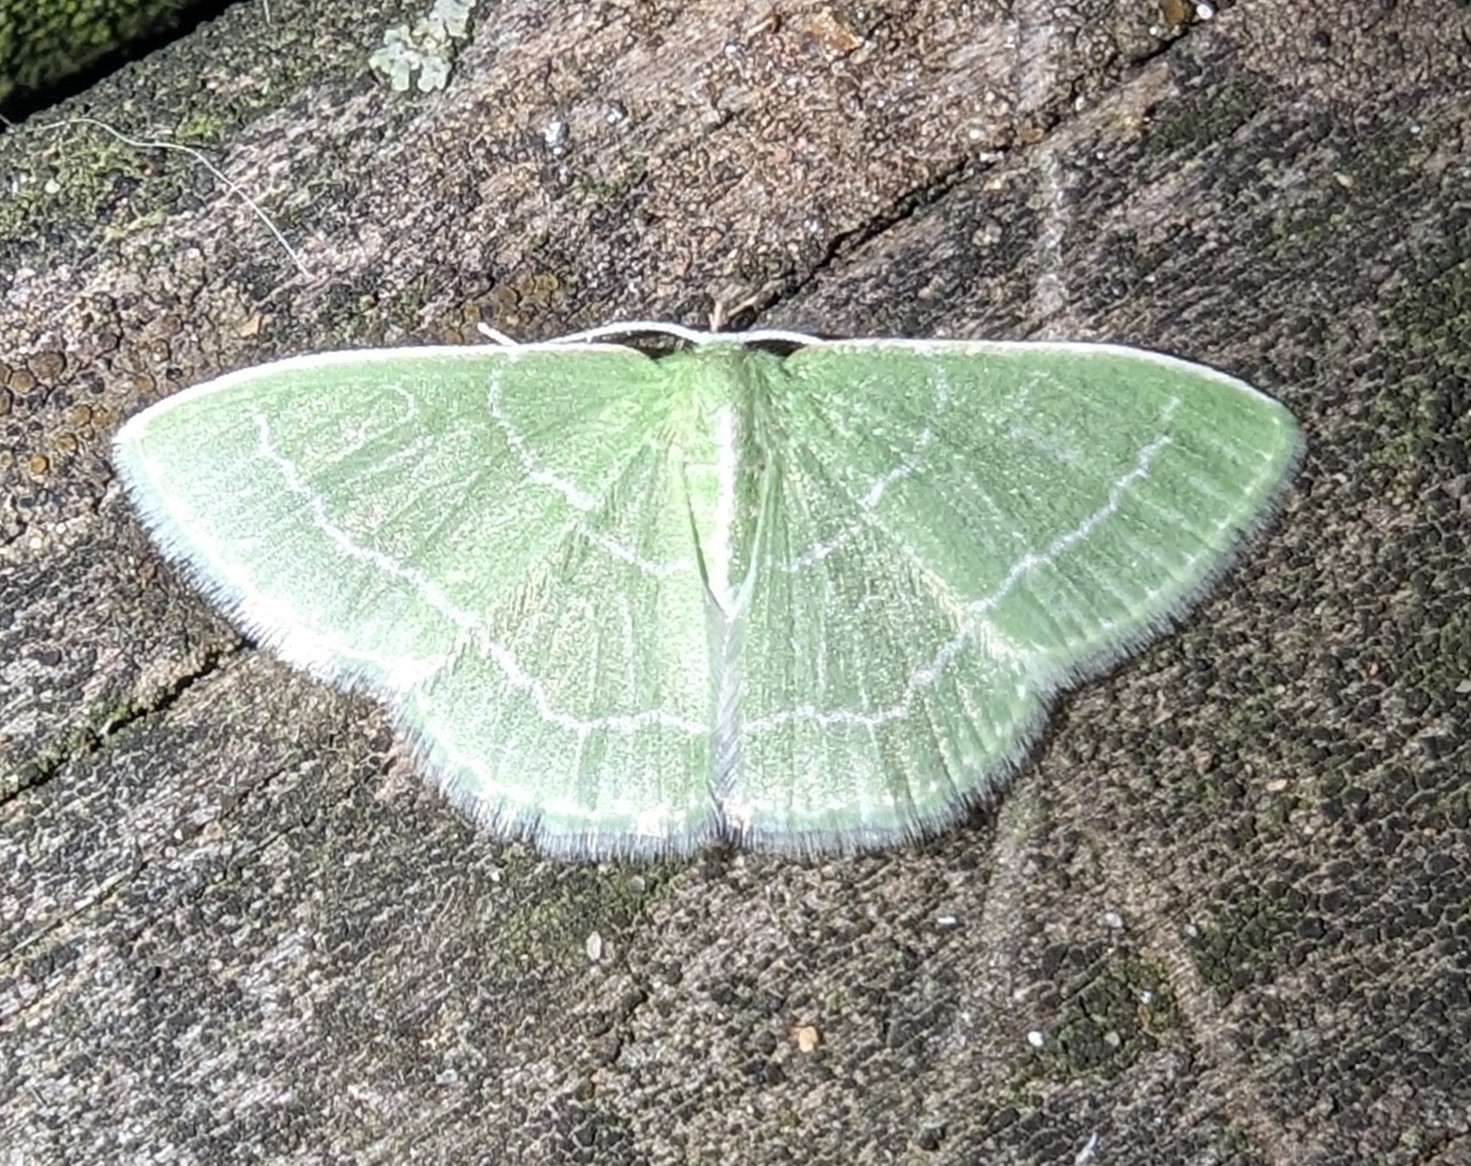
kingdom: Animalia
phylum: Arthropoda
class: Insecta
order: Lepidoptera
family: Geometridae
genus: Synchlora
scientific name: Synchlora aerata
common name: Wavy-lined emerald
